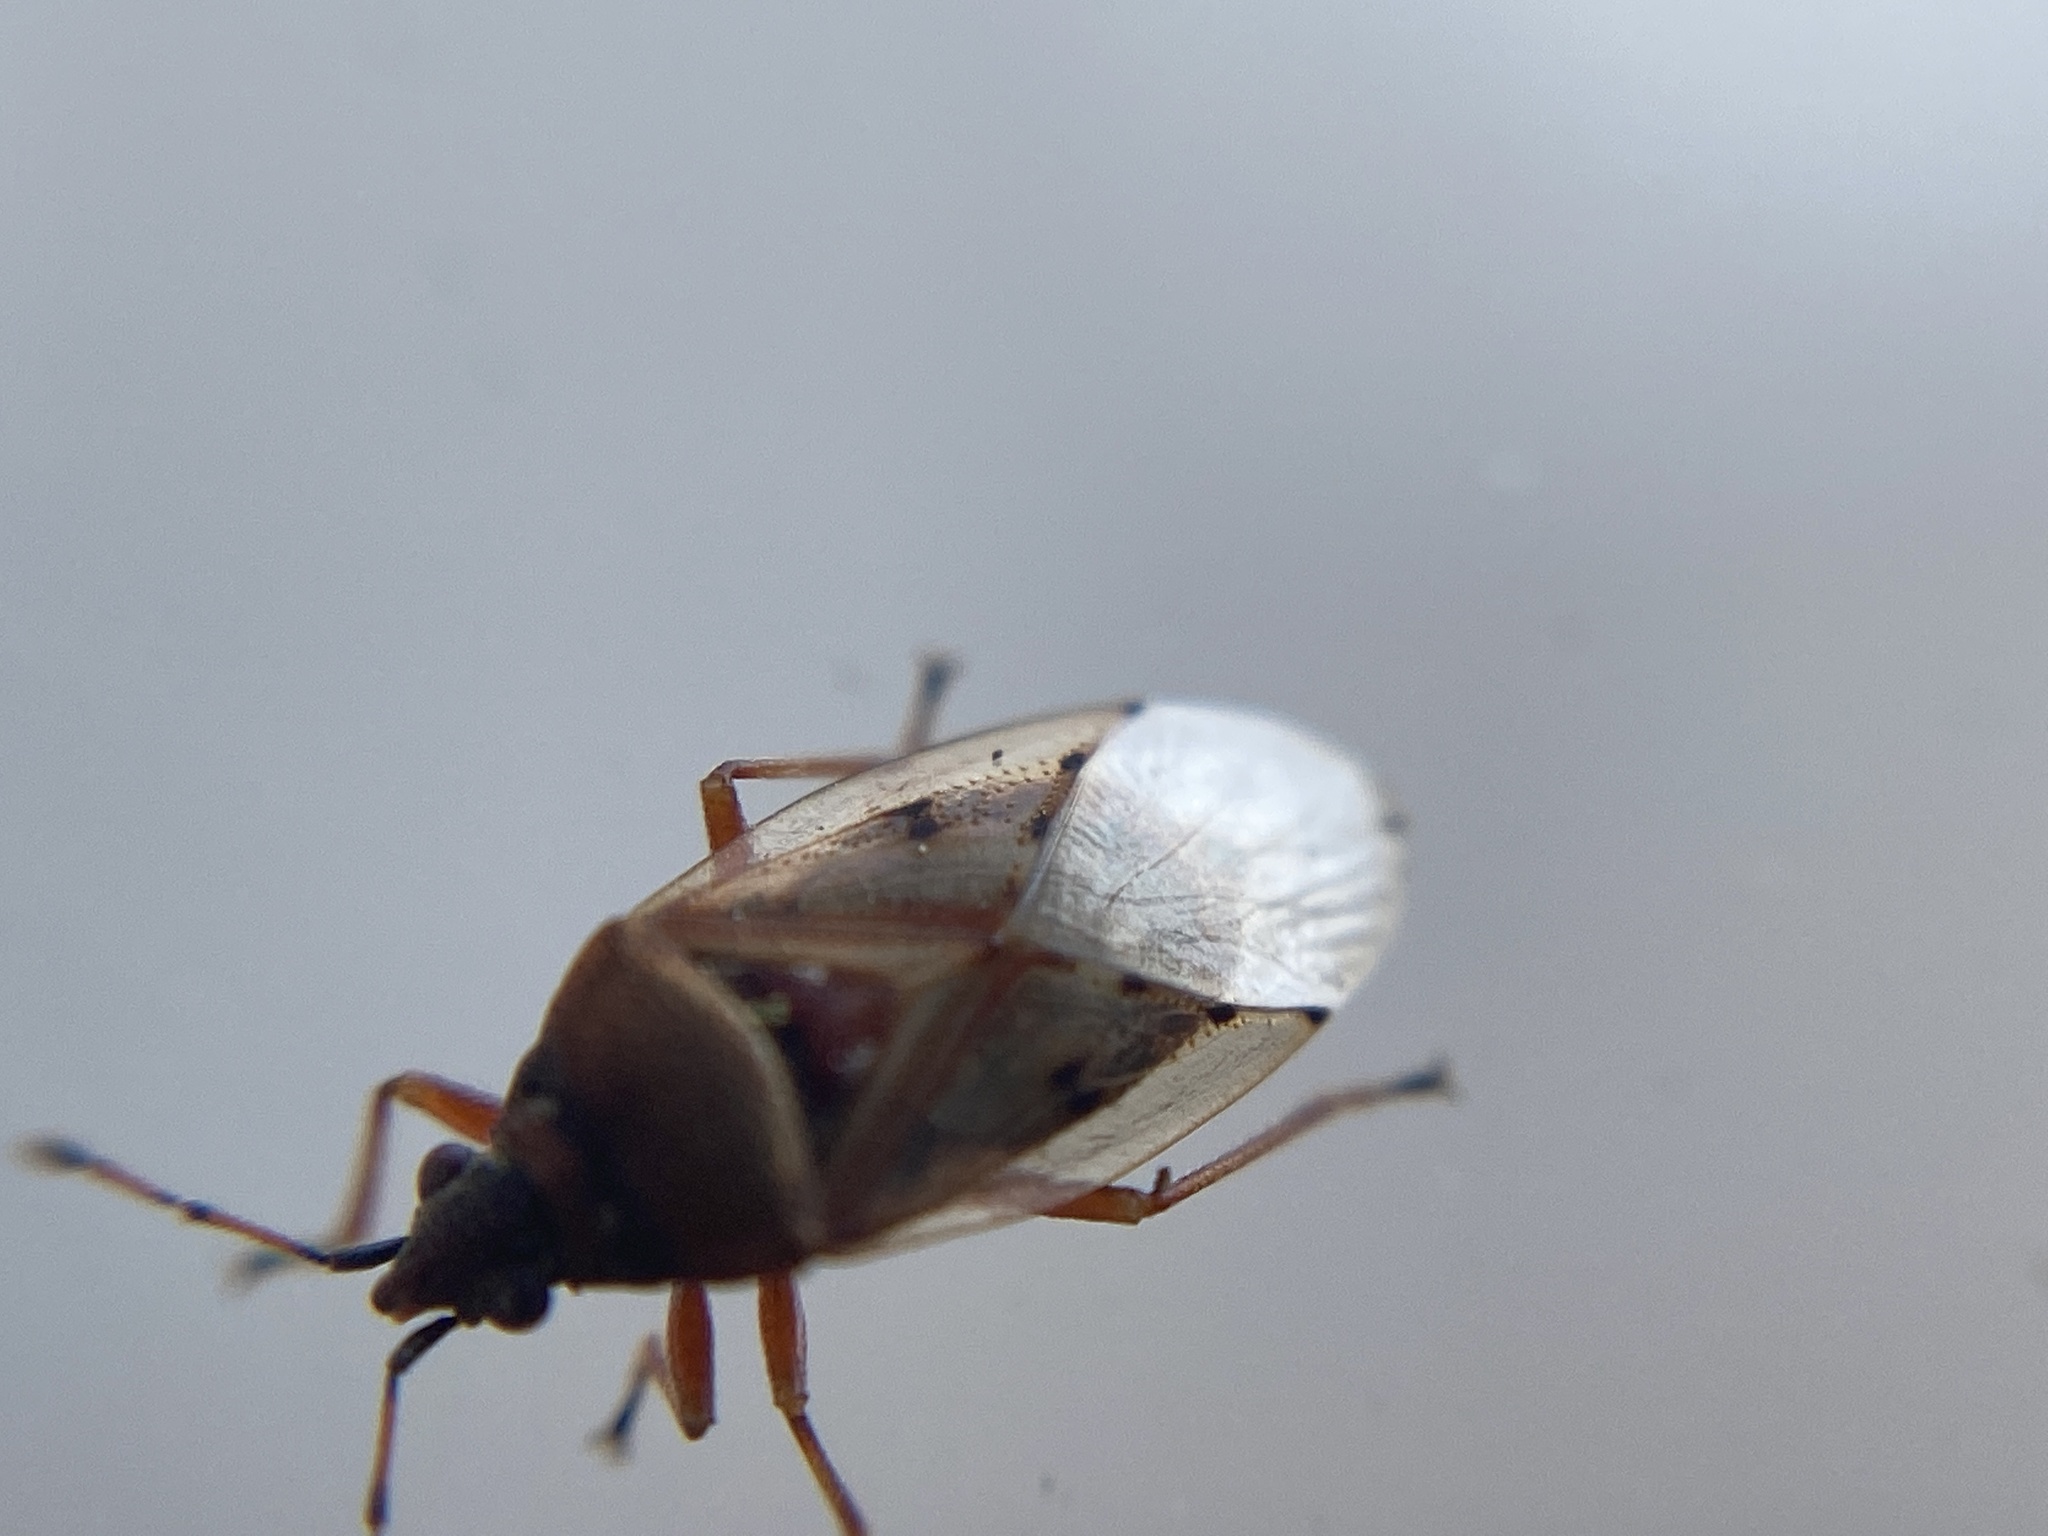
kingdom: Animalia
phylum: Arthropoda
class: Insecta
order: Hemiptera
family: Lygaeidae
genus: Kleidocerys
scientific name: Kleidocerys resedae
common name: Birch catkin bug
